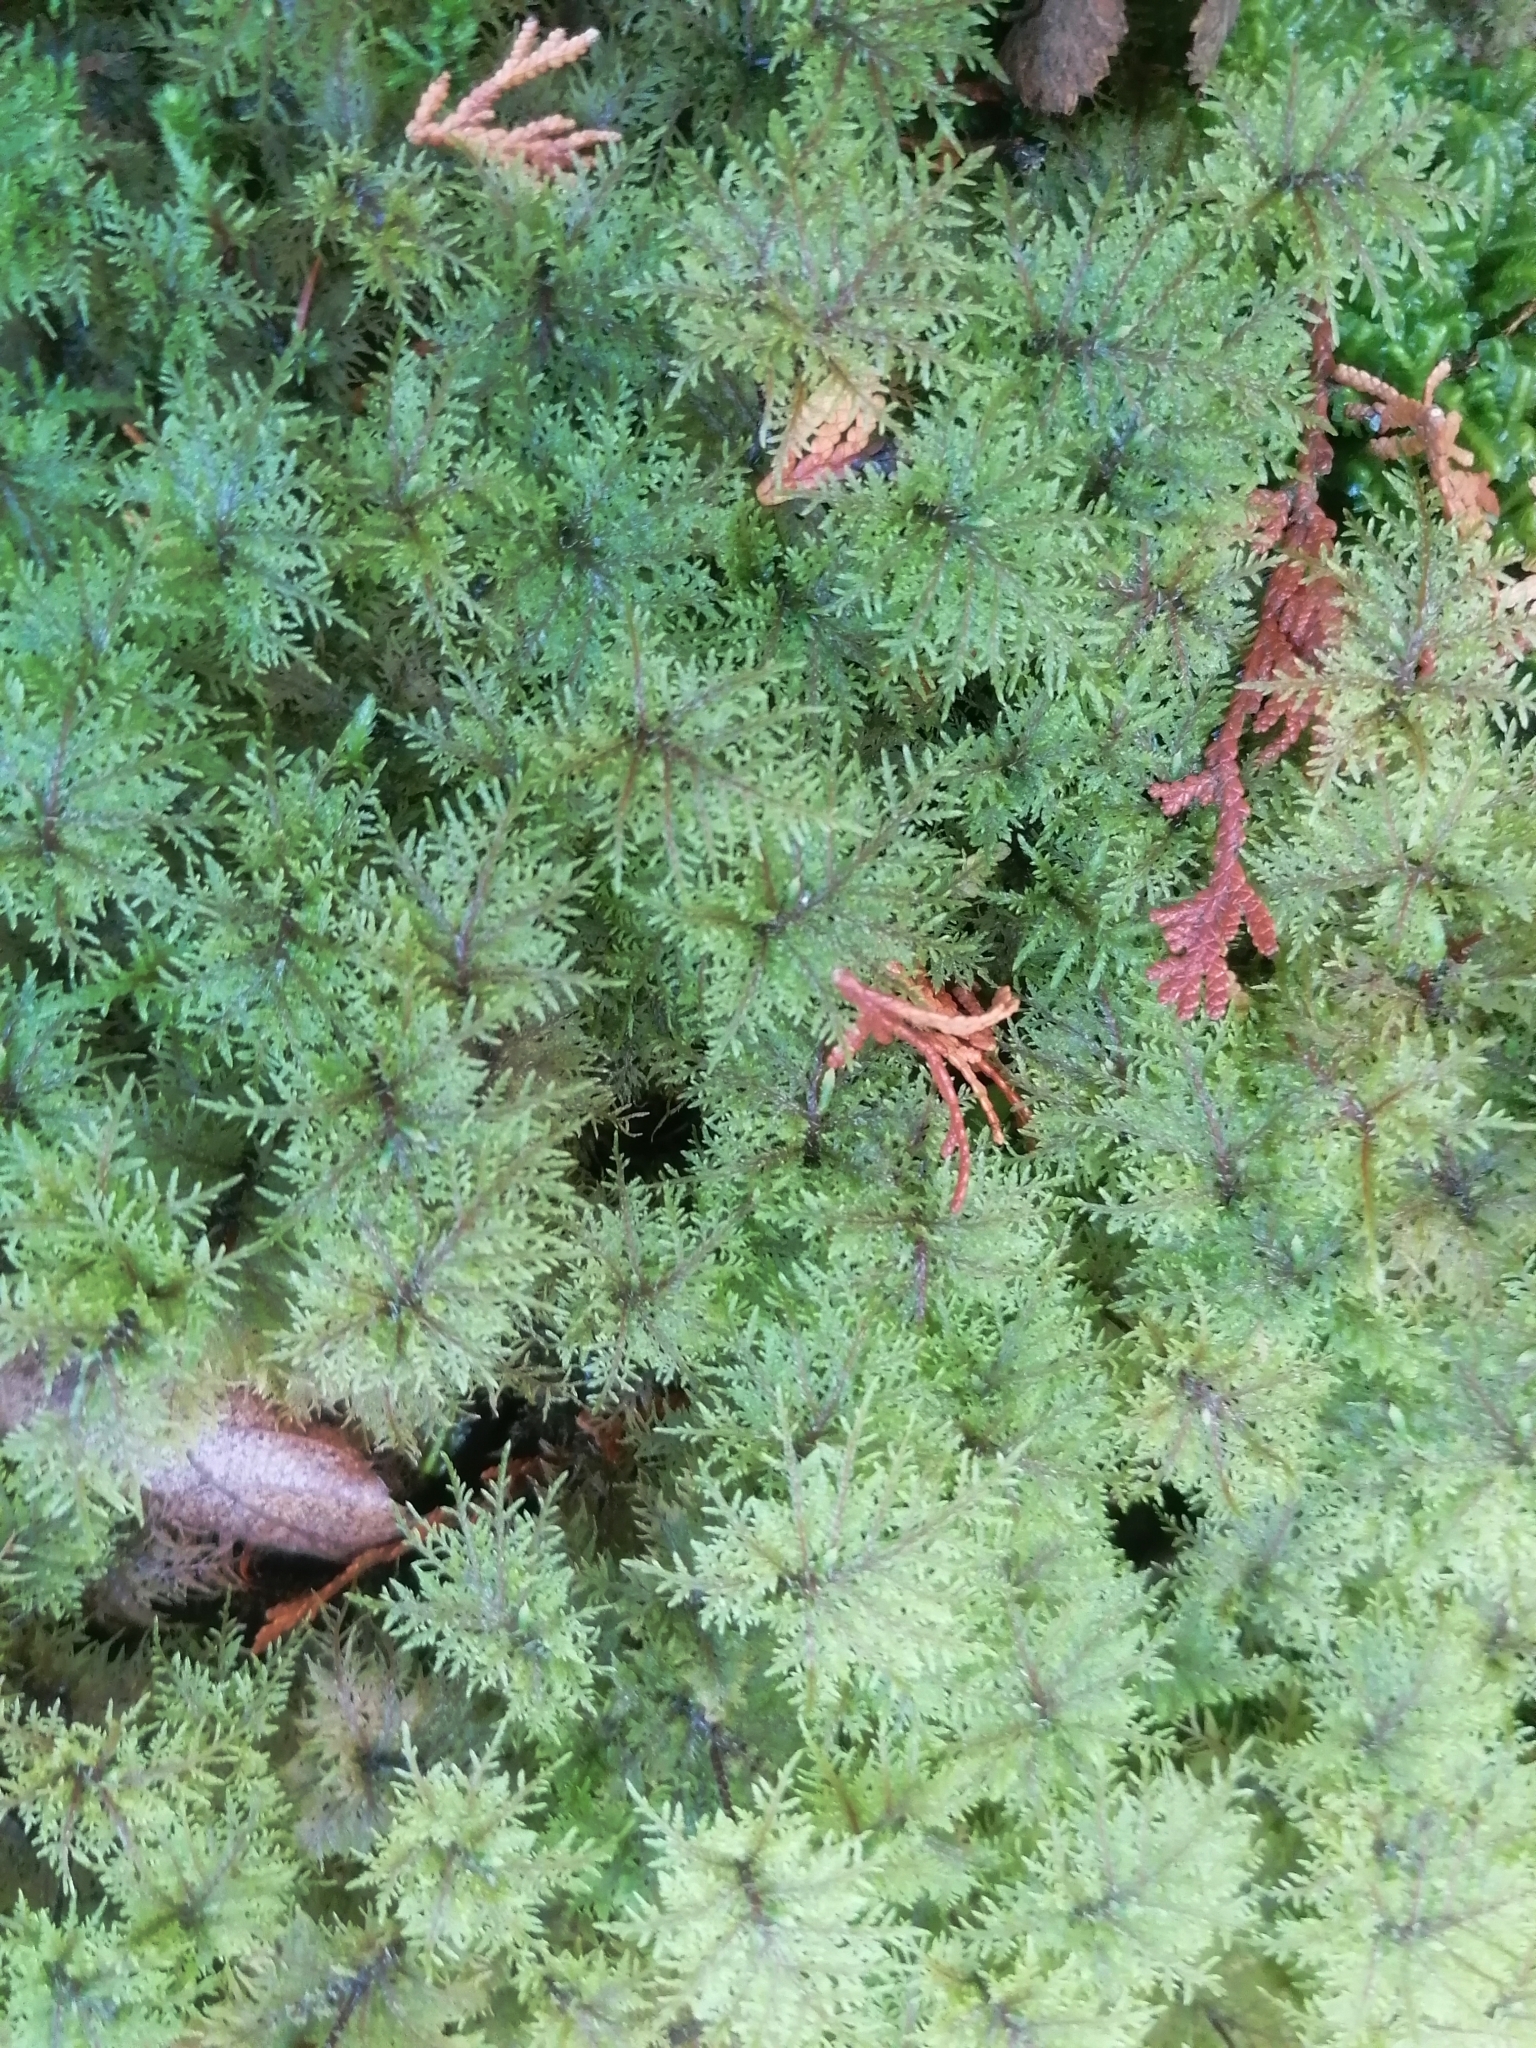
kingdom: Plantae
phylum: Bryophyta
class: Bryopsida
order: Hypnales
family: Hylocomiaceae
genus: Hylocomium
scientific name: Hylocomium splendens
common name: Stairstep moss
